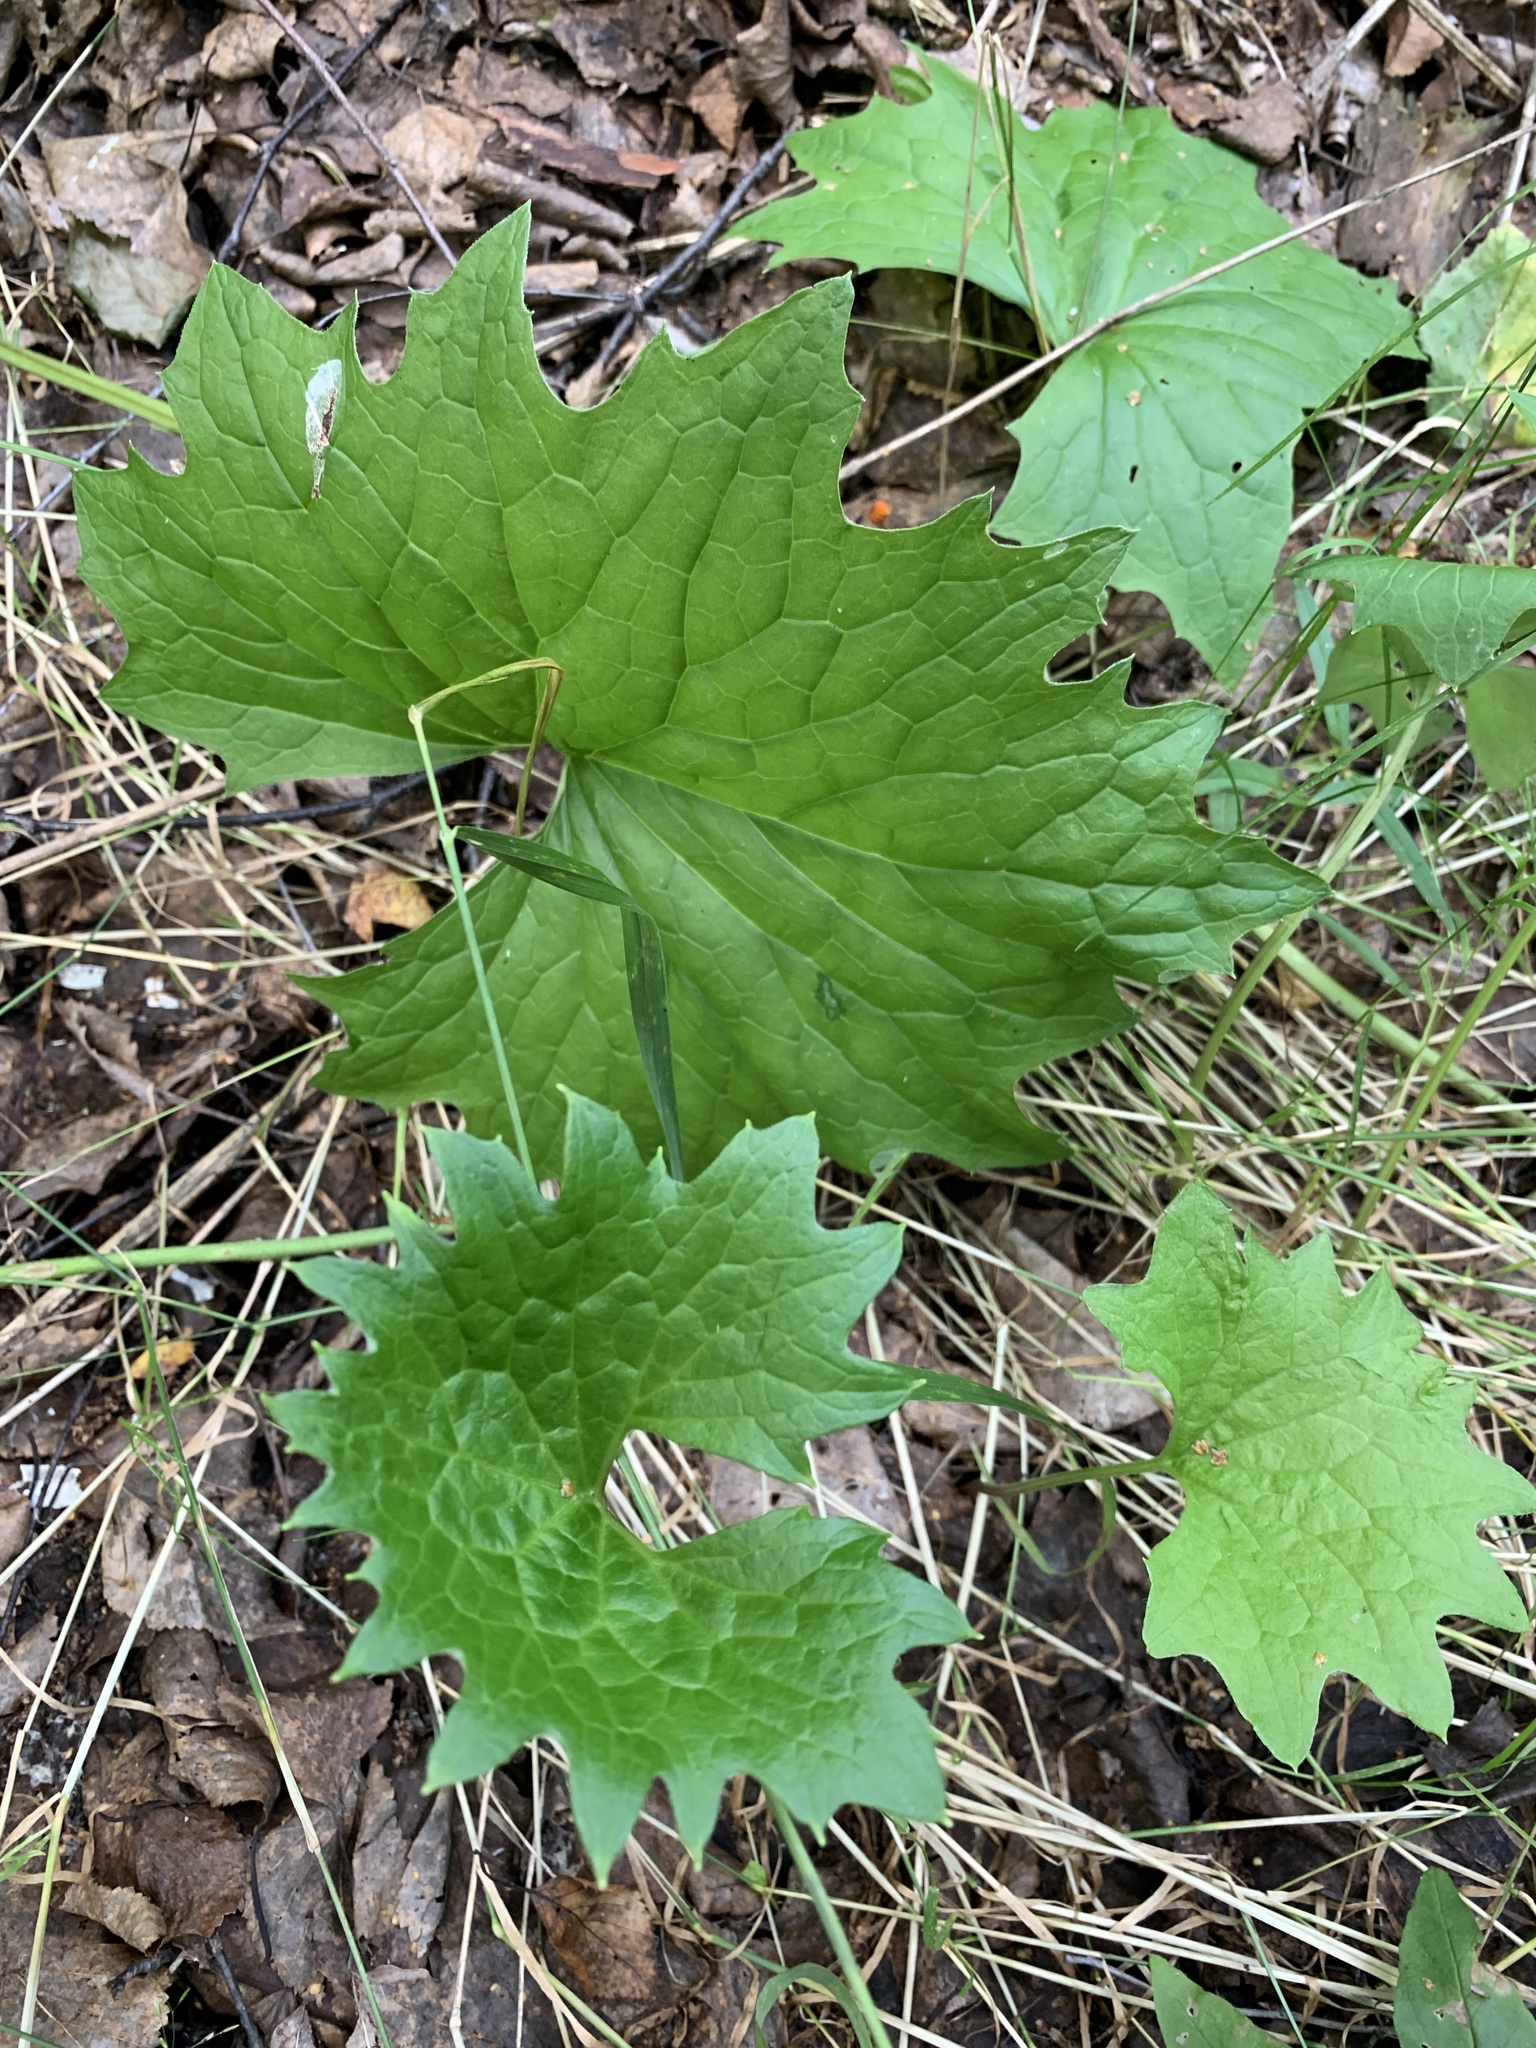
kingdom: Plantae
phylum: Tracheophyta
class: Magnoliopsida
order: Asterales
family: Asteraceae
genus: Petasites
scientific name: Petasites frigidus
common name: Arctic butterbur
